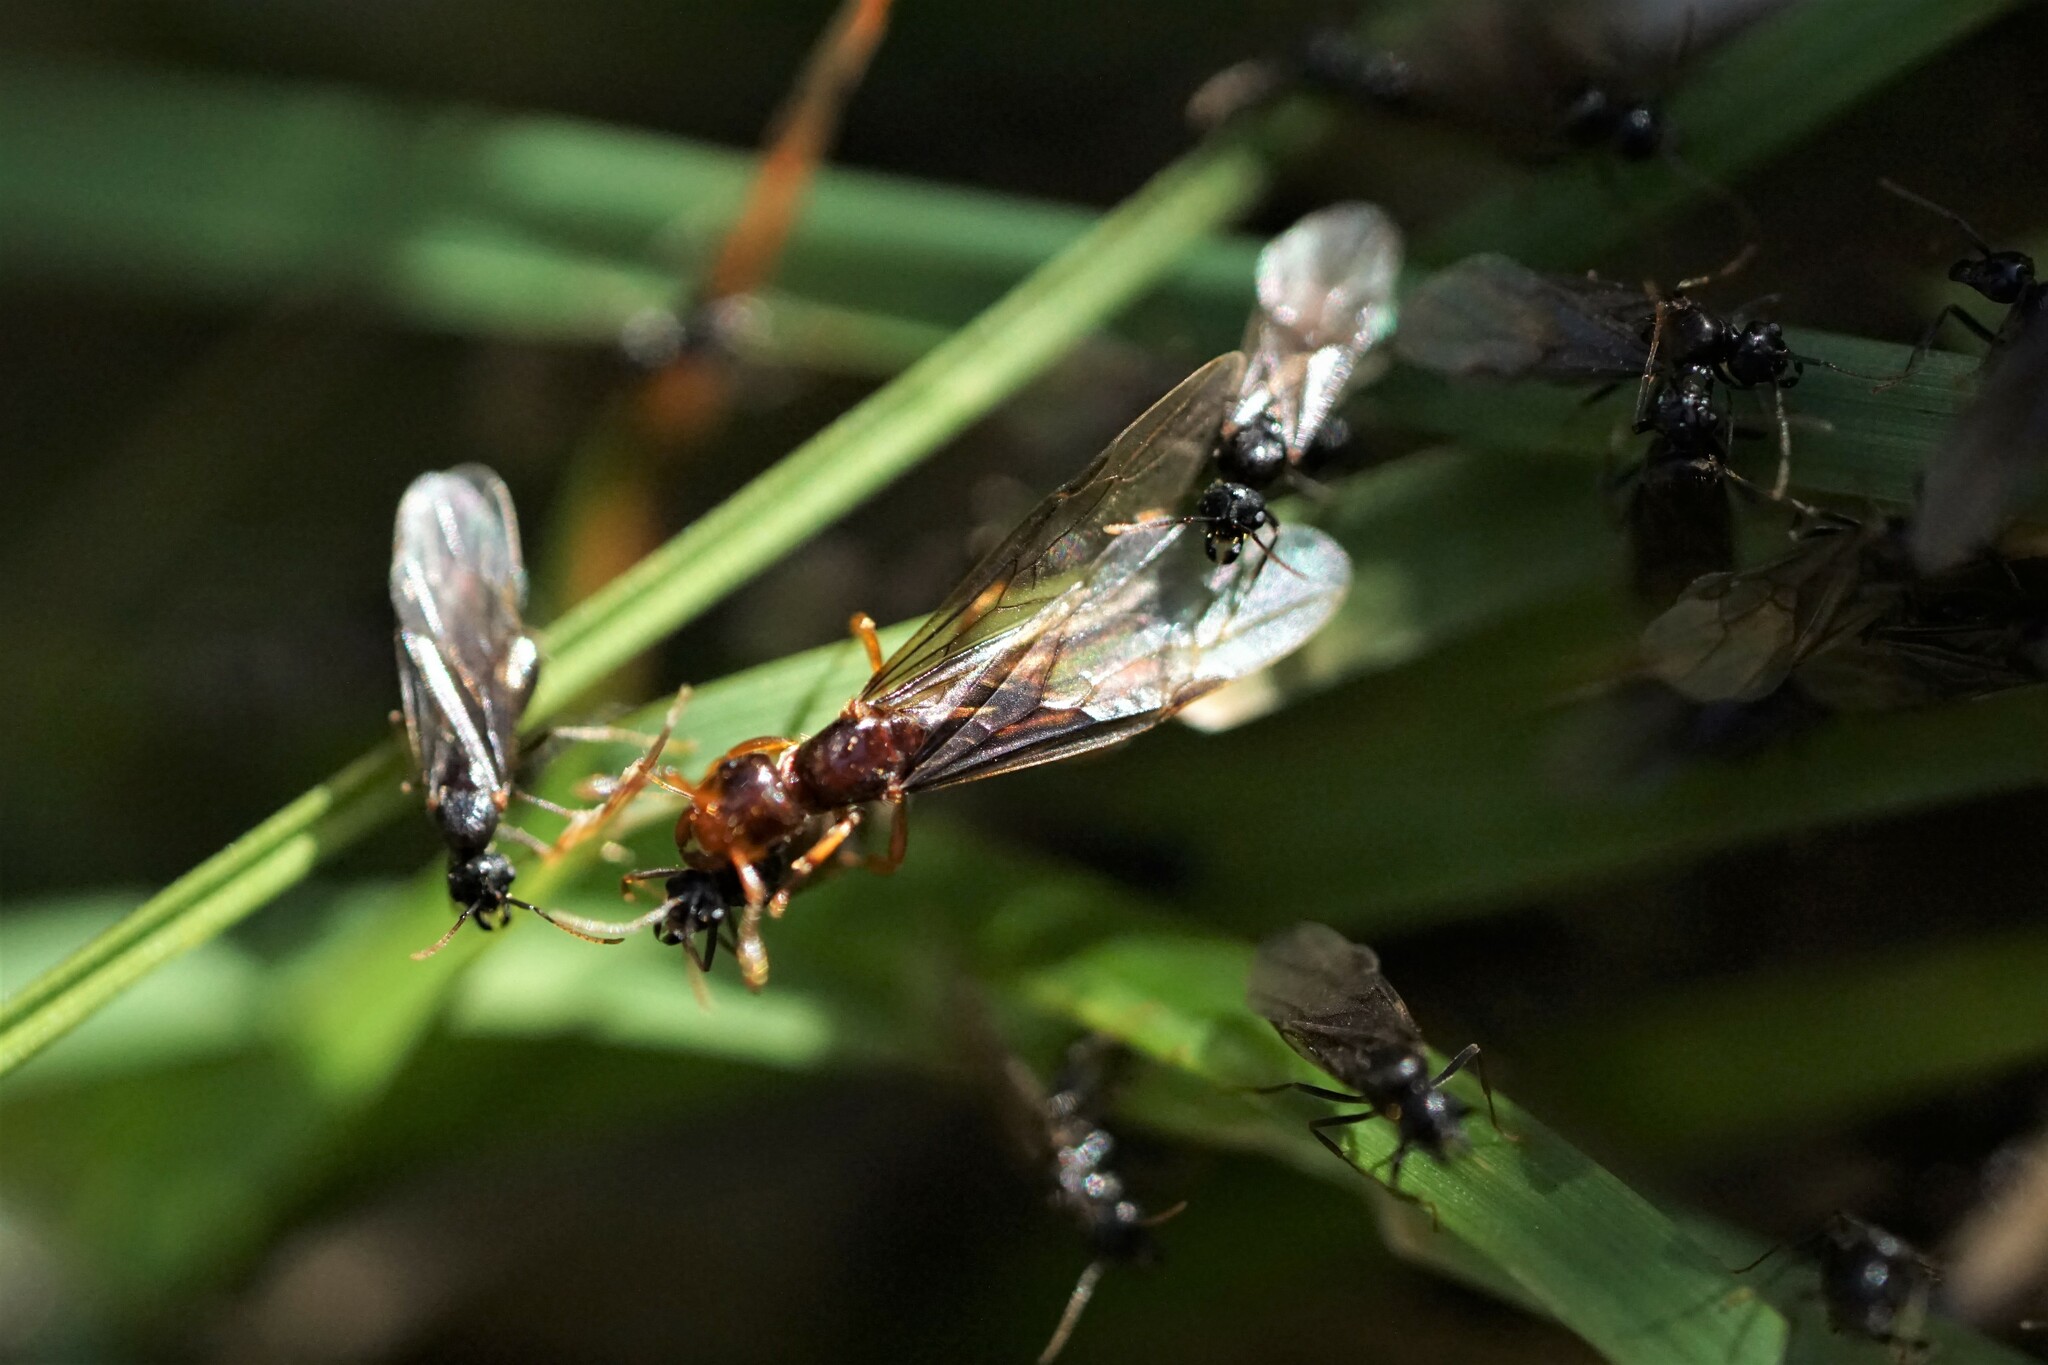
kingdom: Animalia
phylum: Arthropoda
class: Insecta
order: Hymenoptera
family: Formicidae
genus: Lasius
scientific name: Lasius claviger
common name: Common citronella ant
